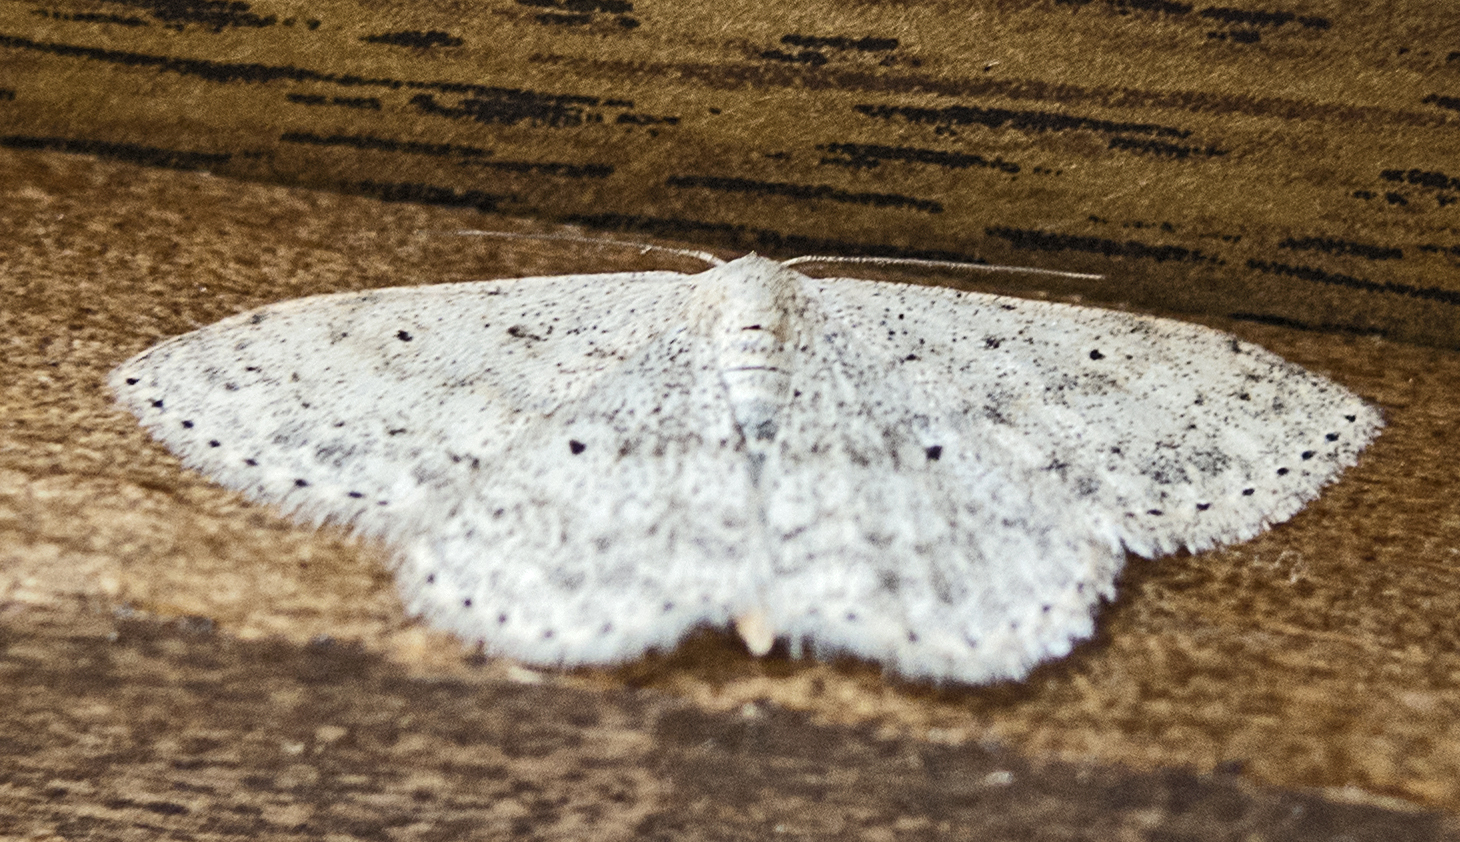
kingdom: Animalia
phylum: Arthropoda
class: Insecta
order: Lepidoptera
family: Geometridae
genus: Scopula
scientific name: Scopula marginepunctata
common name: Mullein wave
